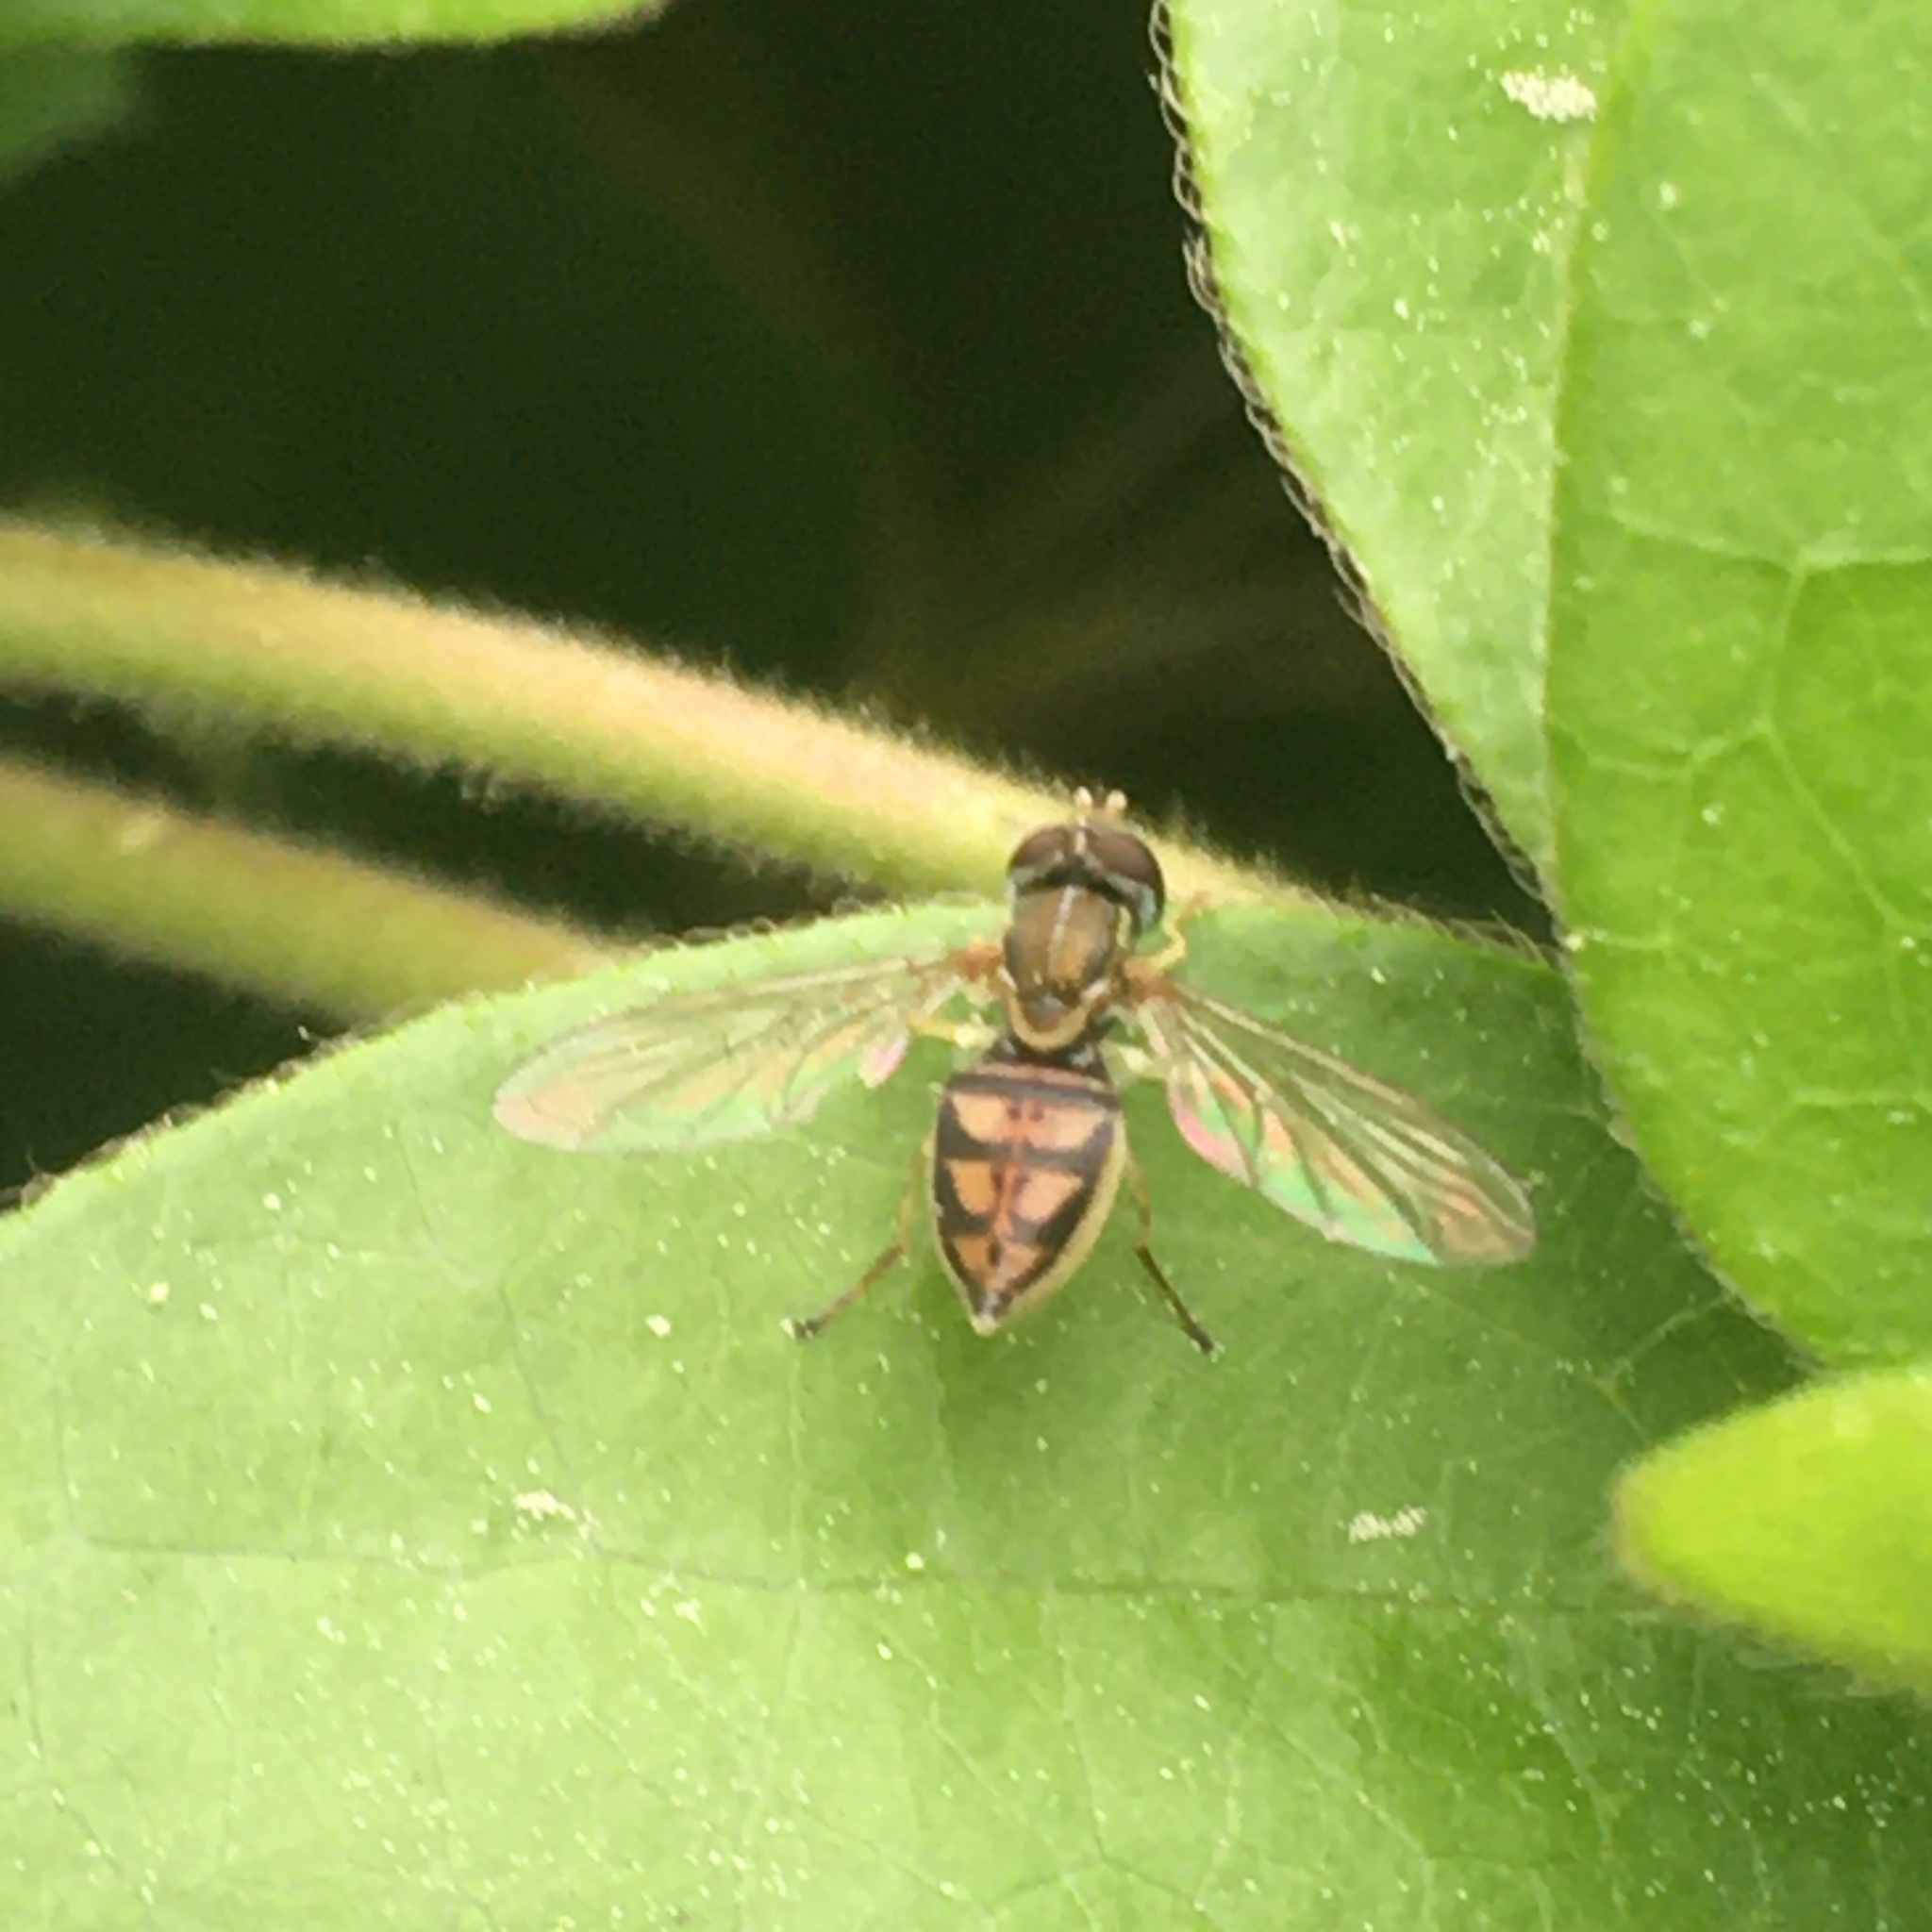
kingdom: Animalia
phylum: Arthropoda
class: Insecta
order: Diptera
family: Syrphidae
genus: Toxomerus
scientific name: Toxomerus marginatus
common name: Syrphid fly
